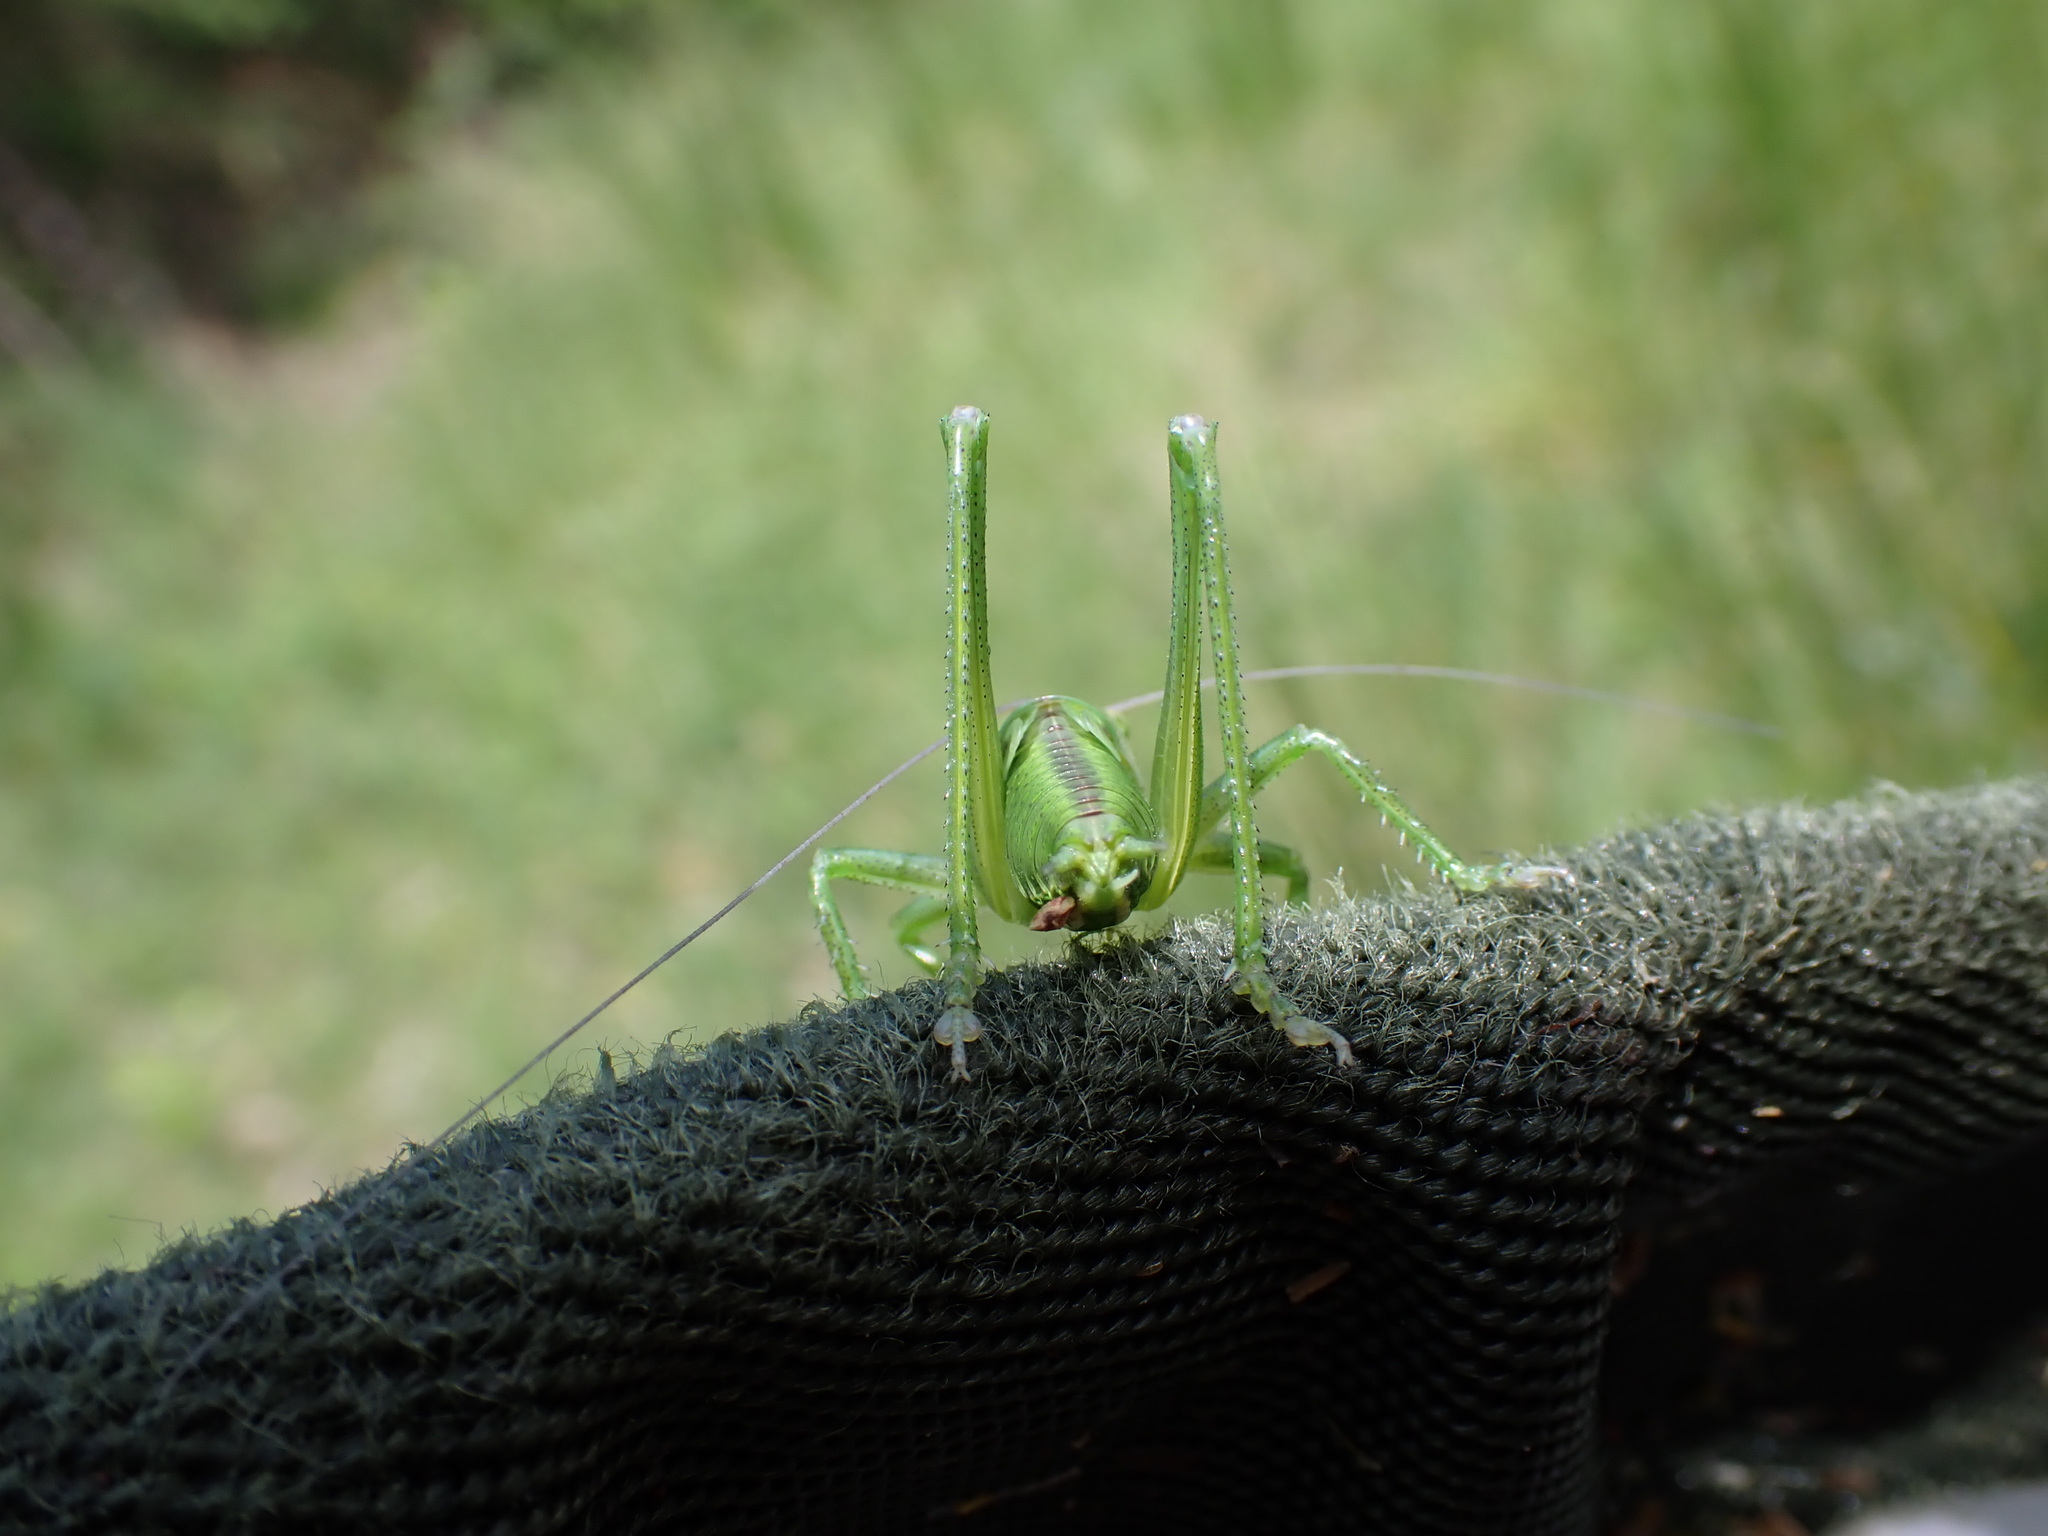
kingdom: Animalia
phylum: Arthropoda
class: Insecta
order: Orthoptera
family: Tettigoniidae
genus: Tettigonia
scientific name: Tettigonia viridissima
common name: Great green bush-cricket
